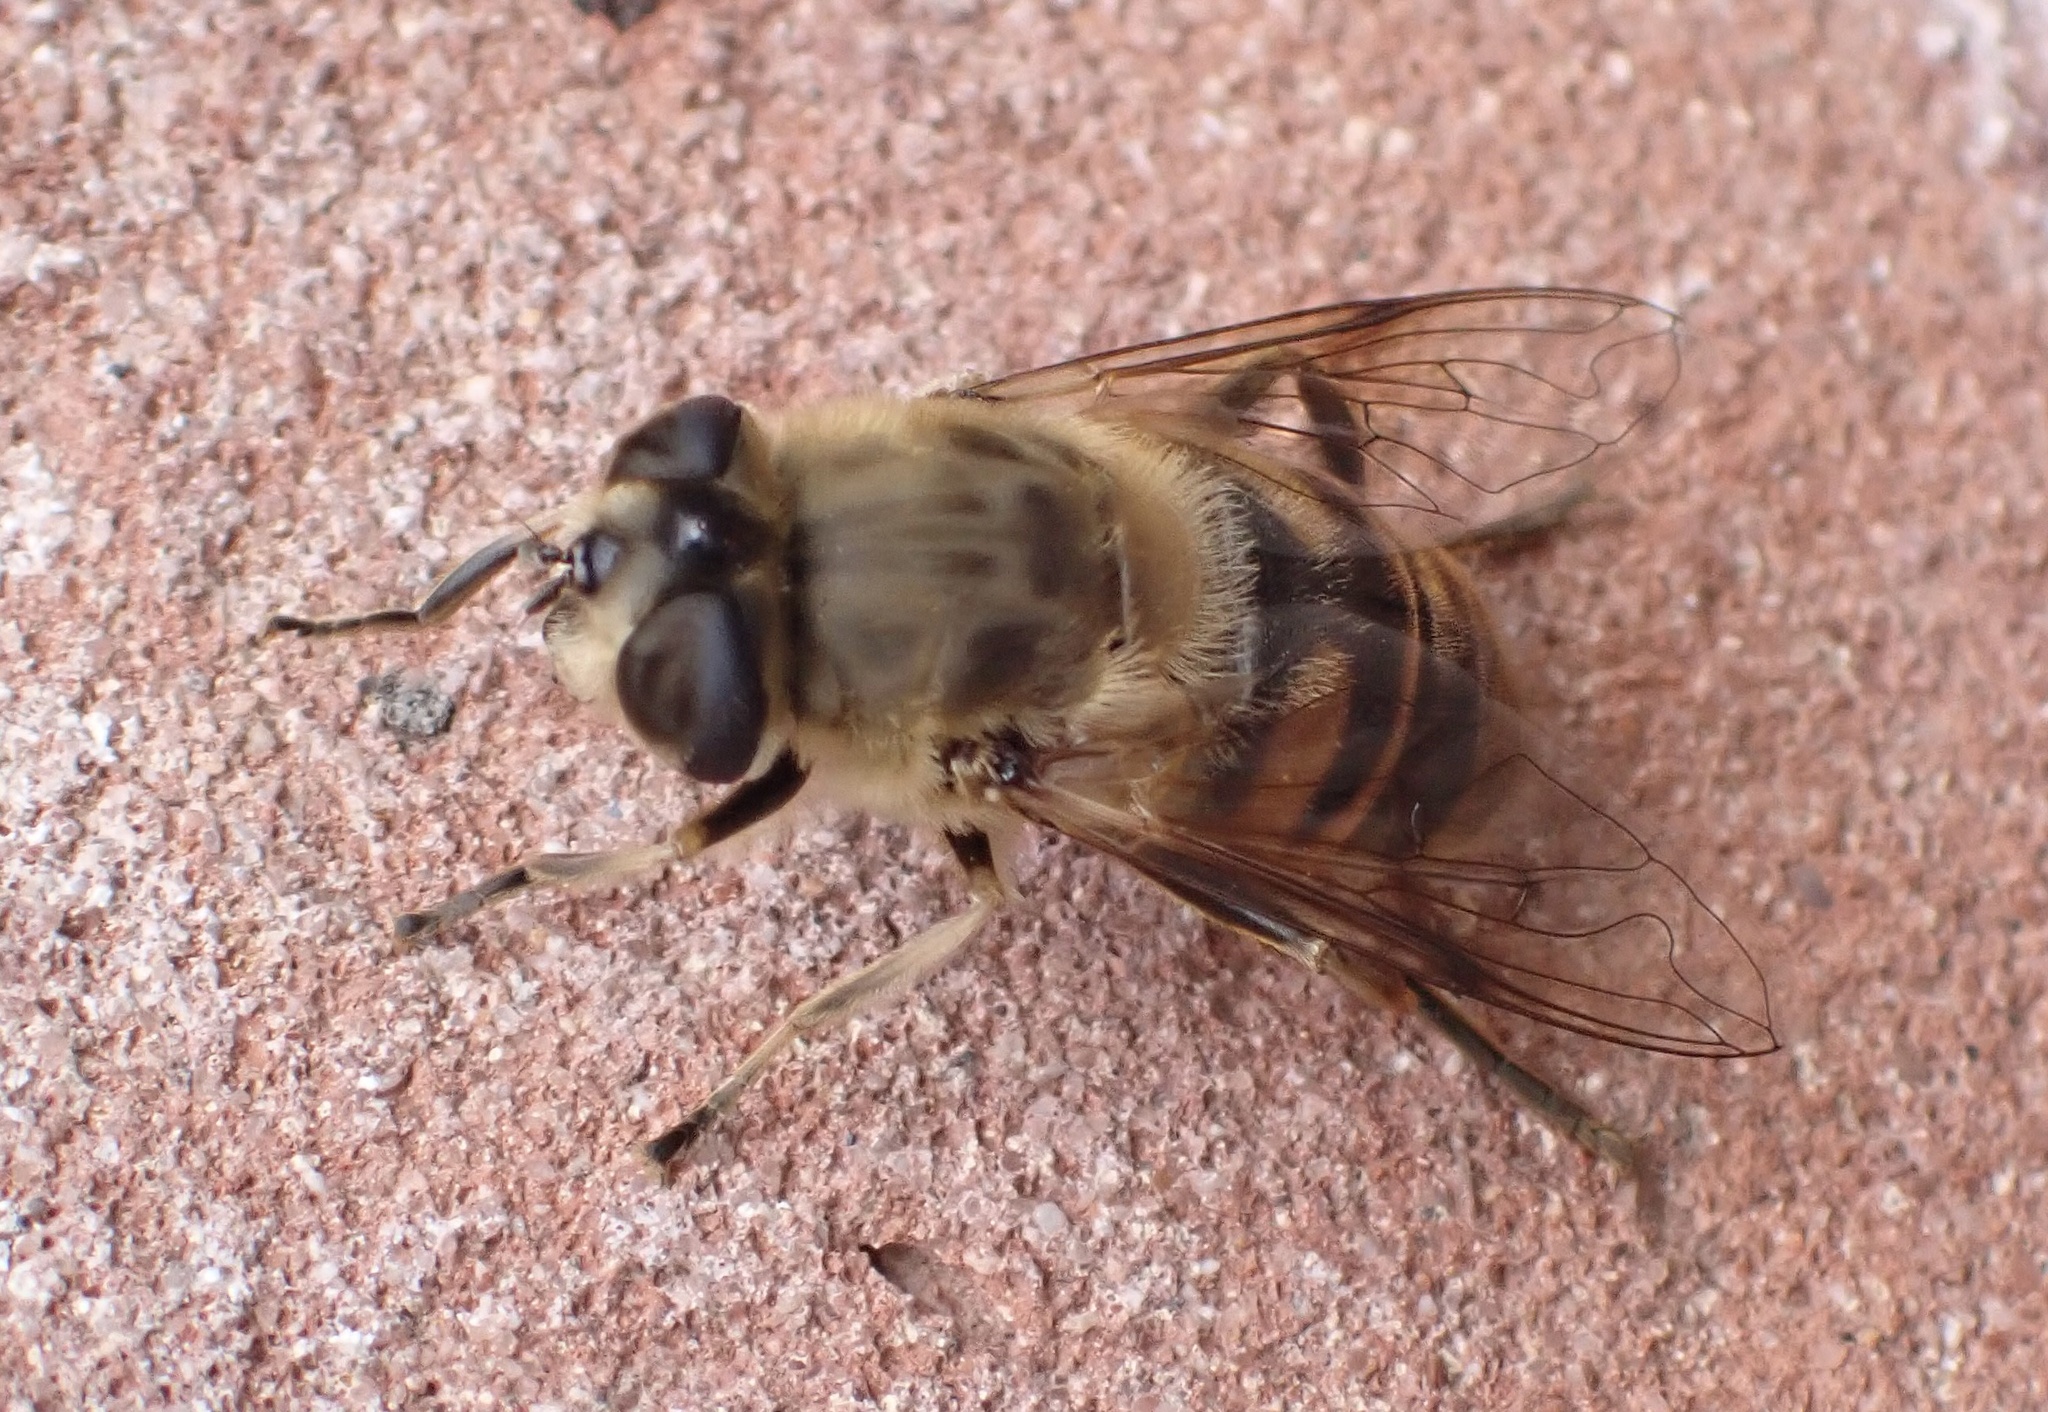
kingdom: Animalia
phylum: Arthropoda
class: Insecta
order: Diptera
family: Syrphidae
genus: Eristalis
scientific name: Eristalis tenax
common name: Drone fly
